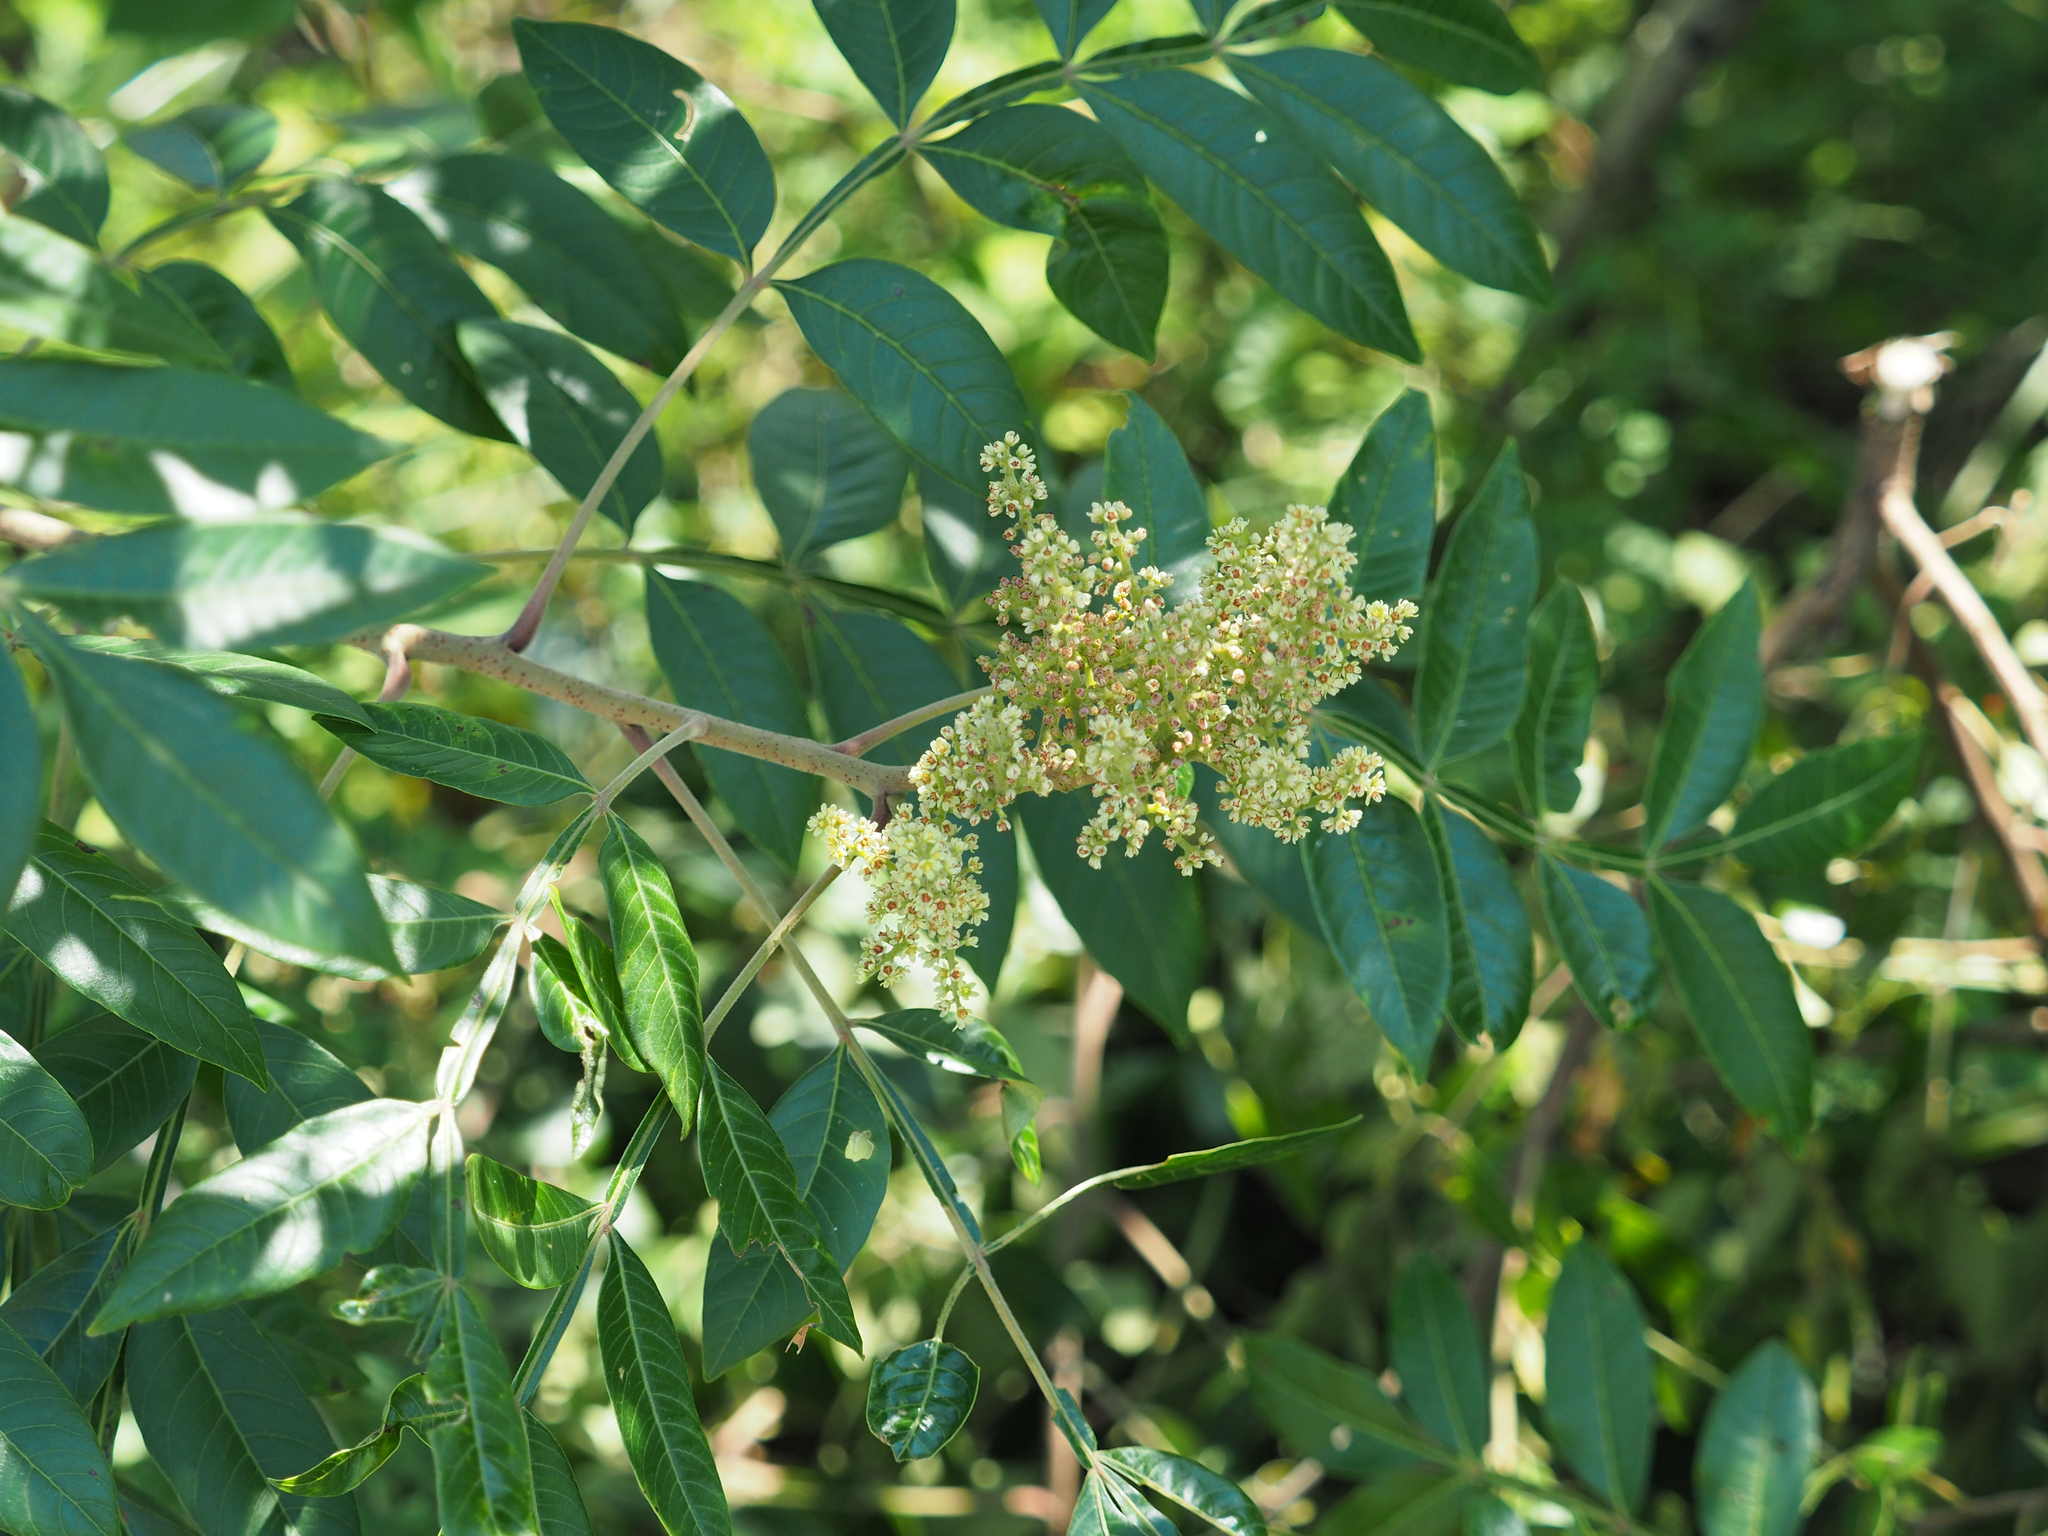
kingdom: Plantae
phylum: Tracheophyta
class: Magnoliopsida
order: Sapindales
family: Anacardiaceae
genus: Rhus
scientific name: Rhus copallina
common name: Shining sumac
